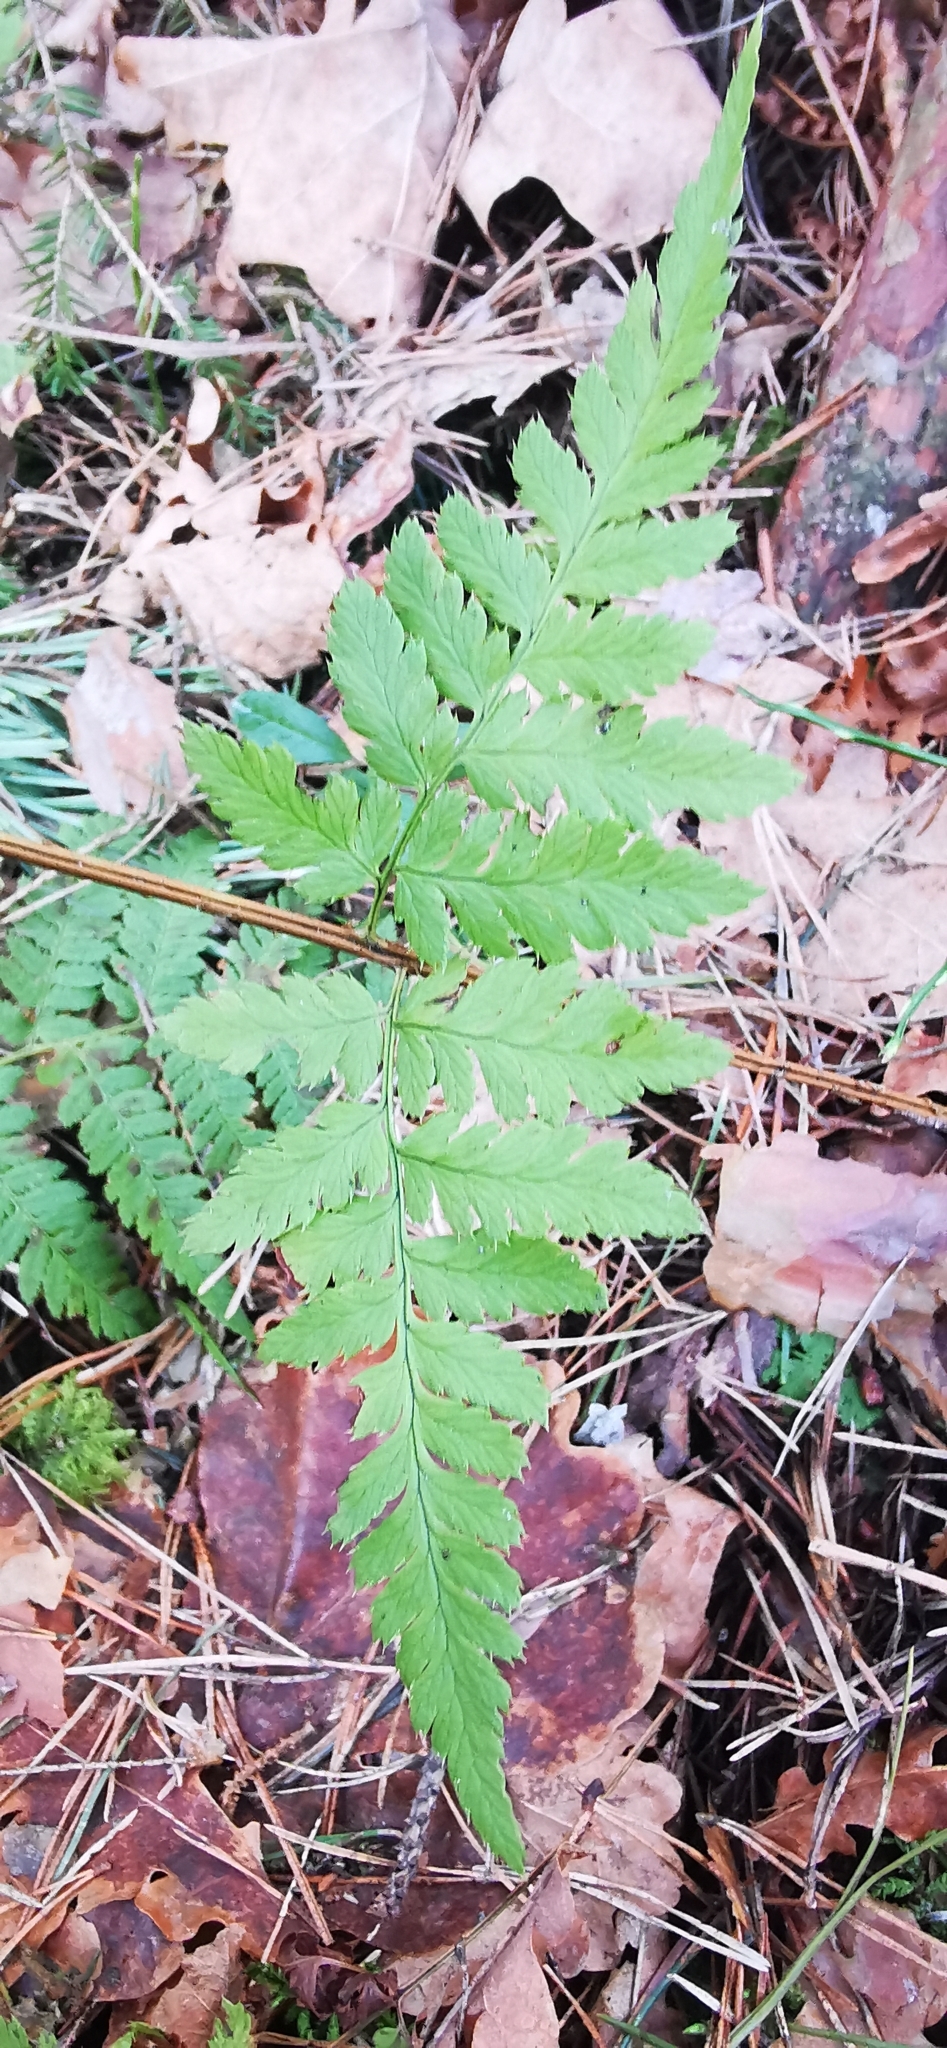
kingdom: Plantae
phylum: Tracheophyta
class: Polypodiopsida
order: Polypodiales
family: Dryopteridaceae
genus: Dryopteris
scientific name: Dryopteris carthusiana
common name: Narrow buckler-fern
